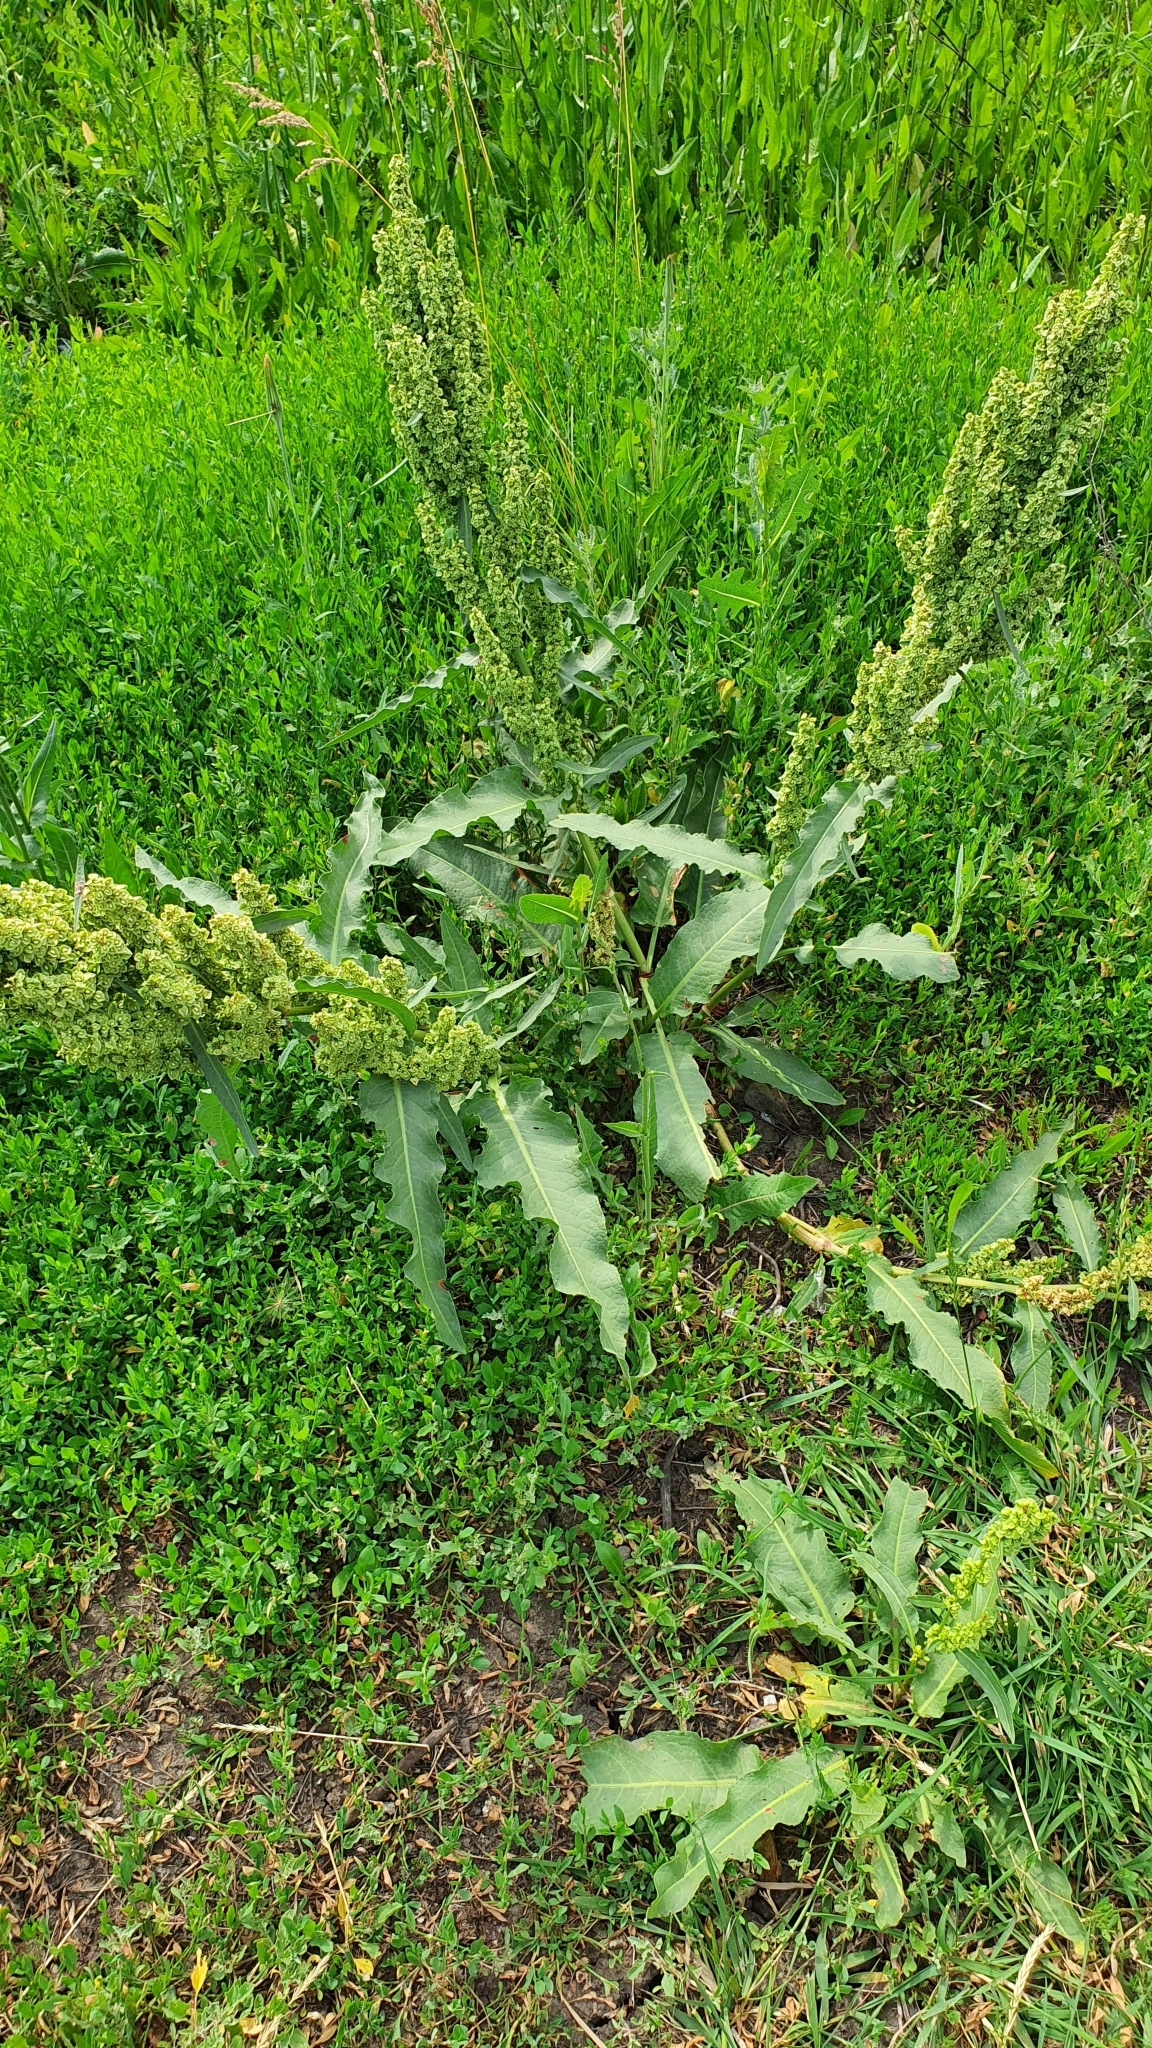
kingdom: Plantae
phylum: Tracheophyta
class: Magnoliopsida
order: Caryophyllales
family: Polygonaceae
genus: Rumex
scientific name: Rumex patientia
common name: Patience dock
